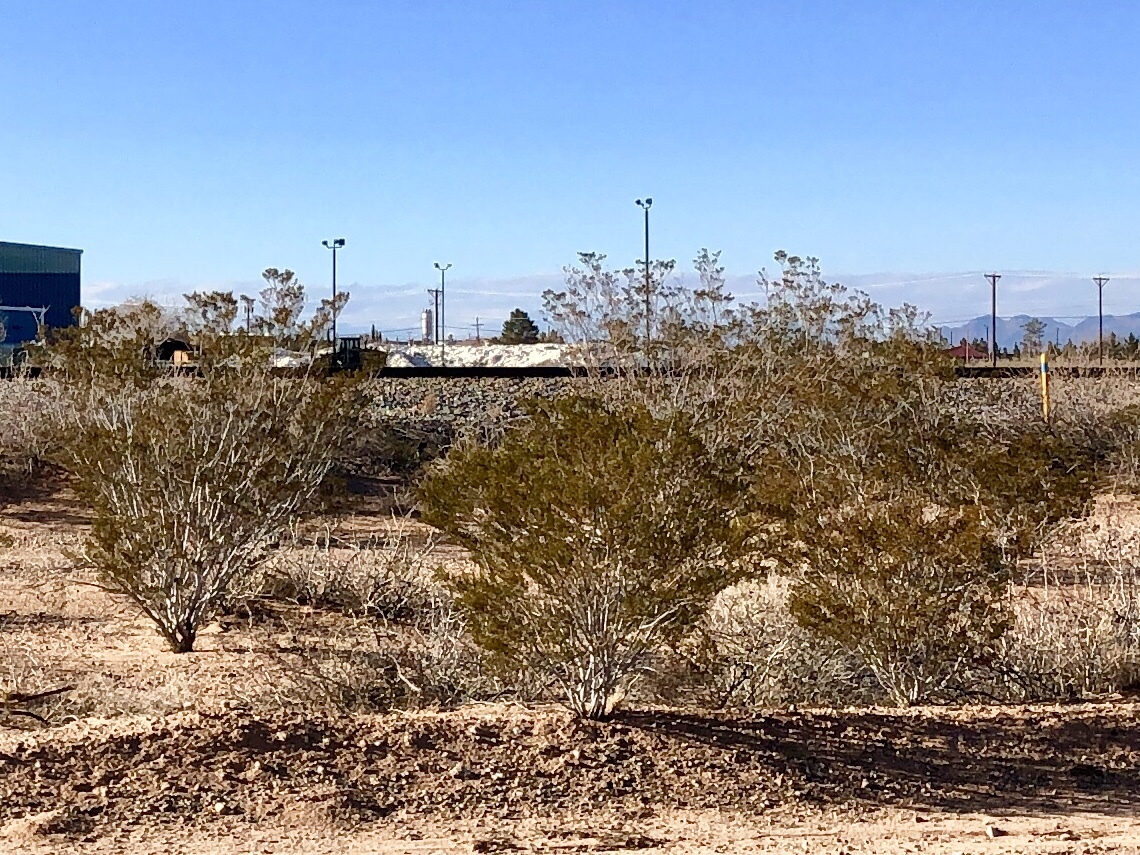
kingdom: Plantae
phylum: Tracheophyta
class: Magnoliopsida
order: Zygophyllales
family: Zygophyllaceae
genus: Larrea
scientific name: Larrea tridentata
